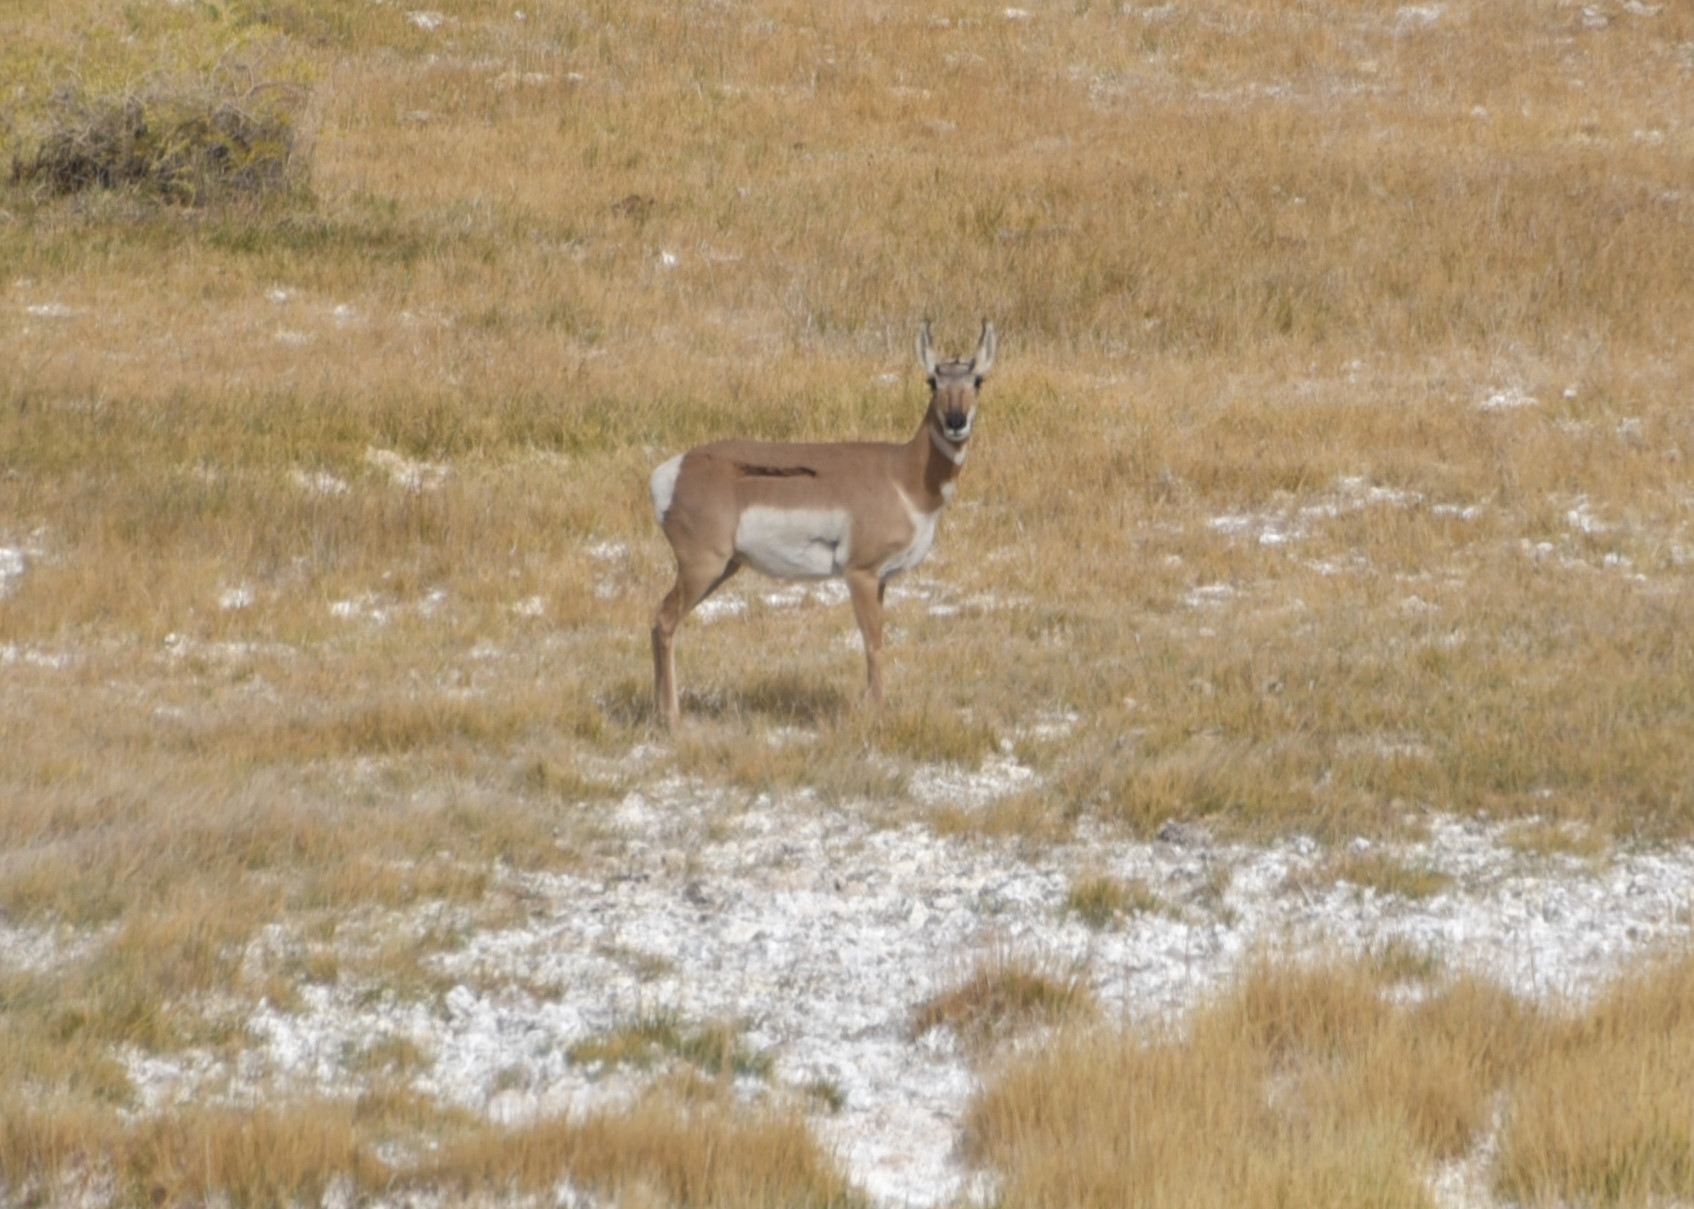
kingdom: Animalia
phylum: Chordata
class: Mammalia
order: Artiodactyla
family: Antilocapridae
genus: Antilocapra
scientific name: Antilocapra americana
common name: Pronghorn
